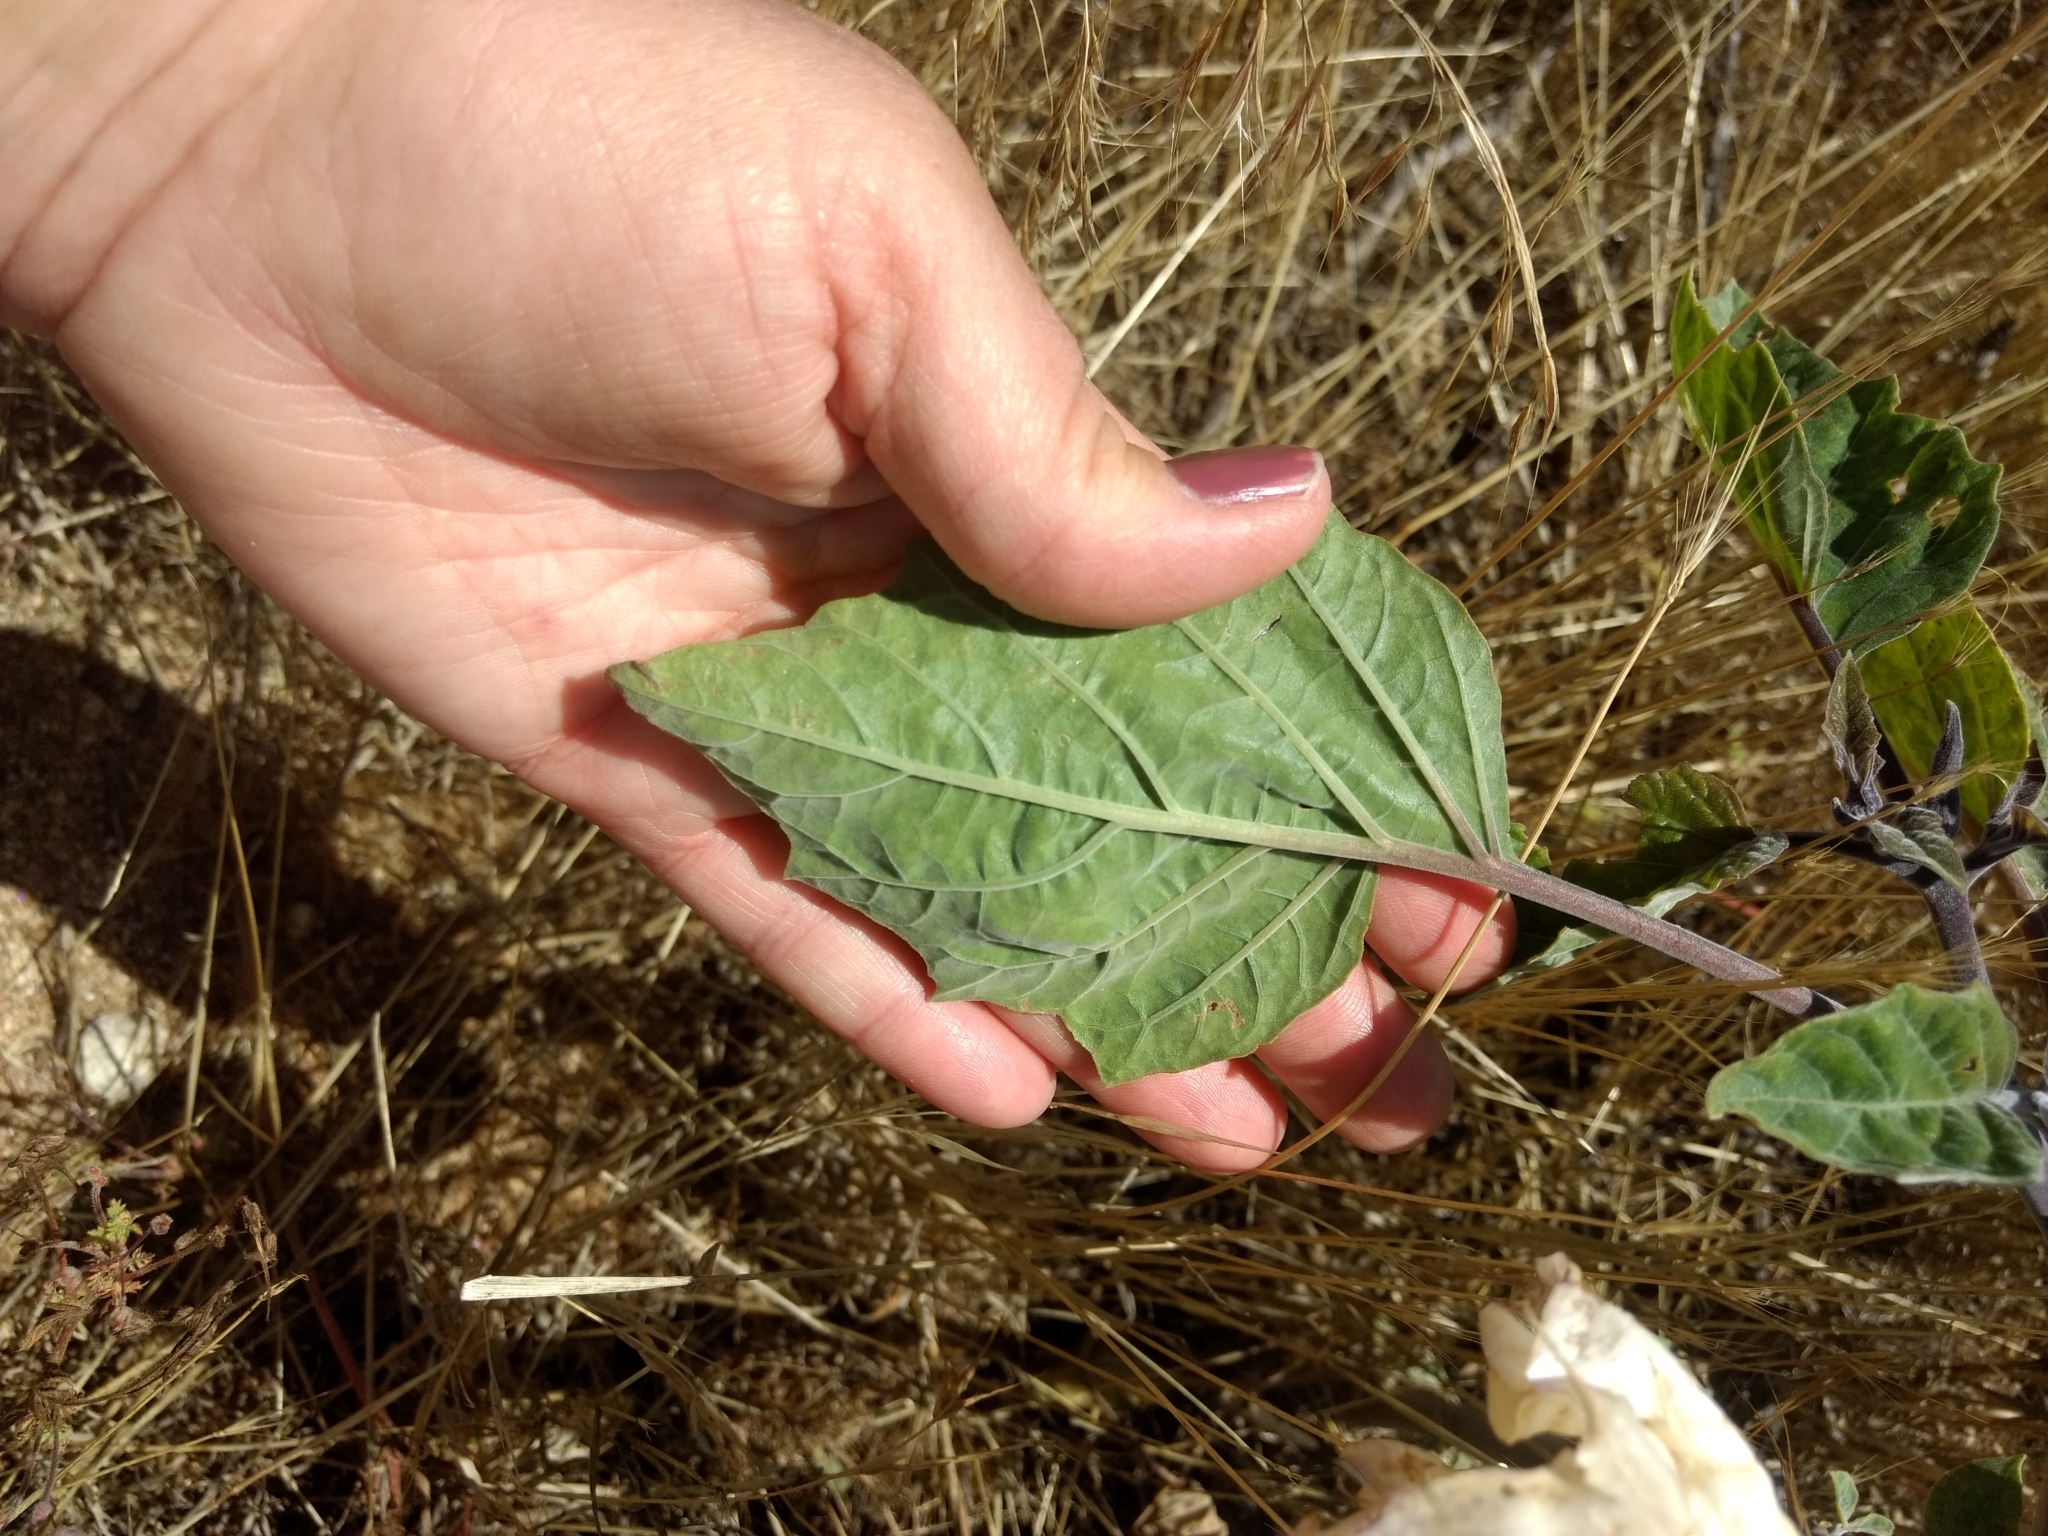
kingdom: Plantae
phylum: Tracheophyta
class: Magnoliopsida
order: Solanales
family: Solanaceae
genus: Datura
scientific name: Datura wrightii
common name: Sacred thorn-apple
